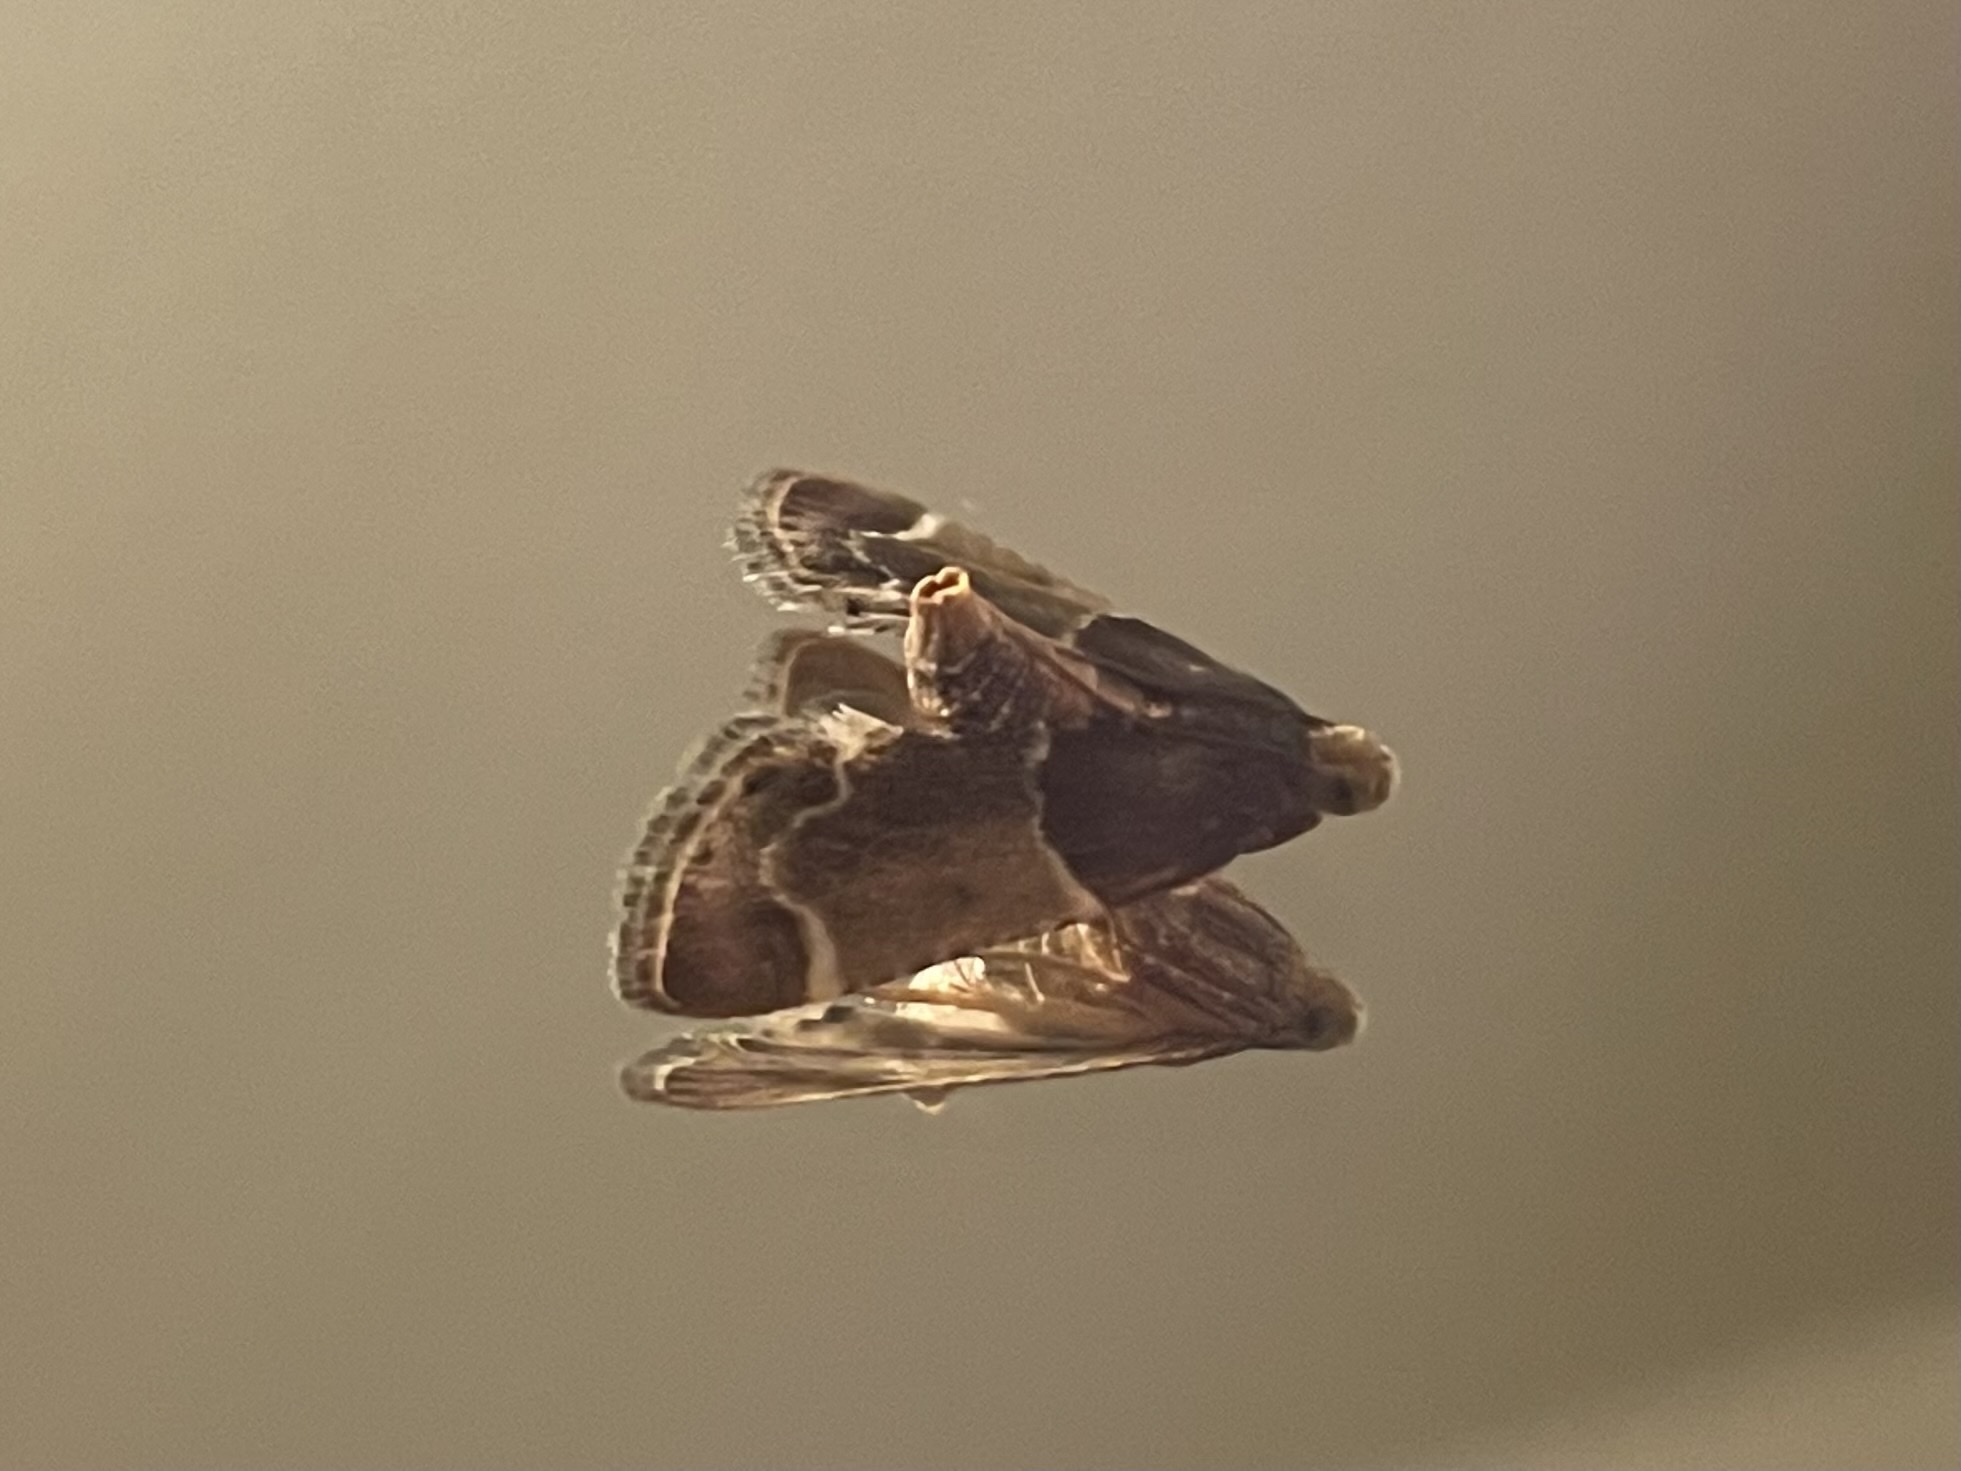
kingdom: Animalia
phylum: Arthropoda
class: Insecta
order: Lepidoptera
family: Pyralidae
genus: Pyralis
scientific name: Pyralis farinalis
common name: Meal moth
